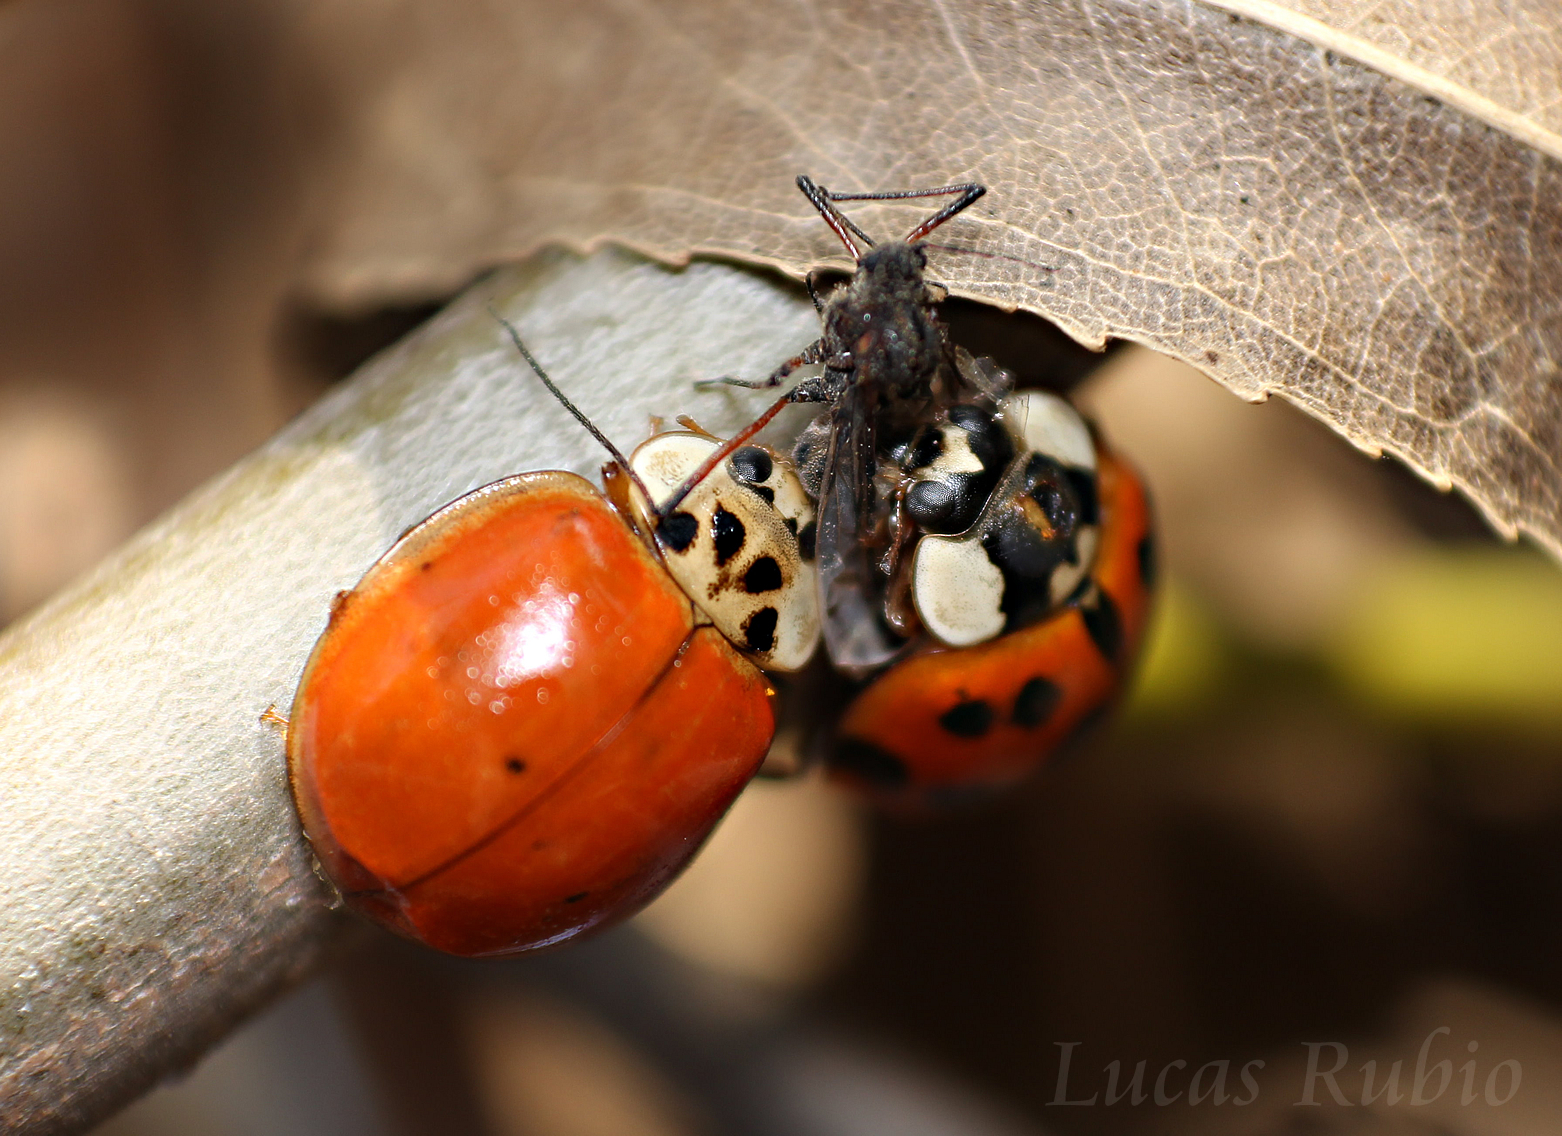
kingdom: Animalia
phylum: Arthropoda
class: Insecta
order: Coleoptera
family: Coccinellidae
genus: Harmonia
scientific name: Harmonia axyridis
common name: Harlequin ladybird
